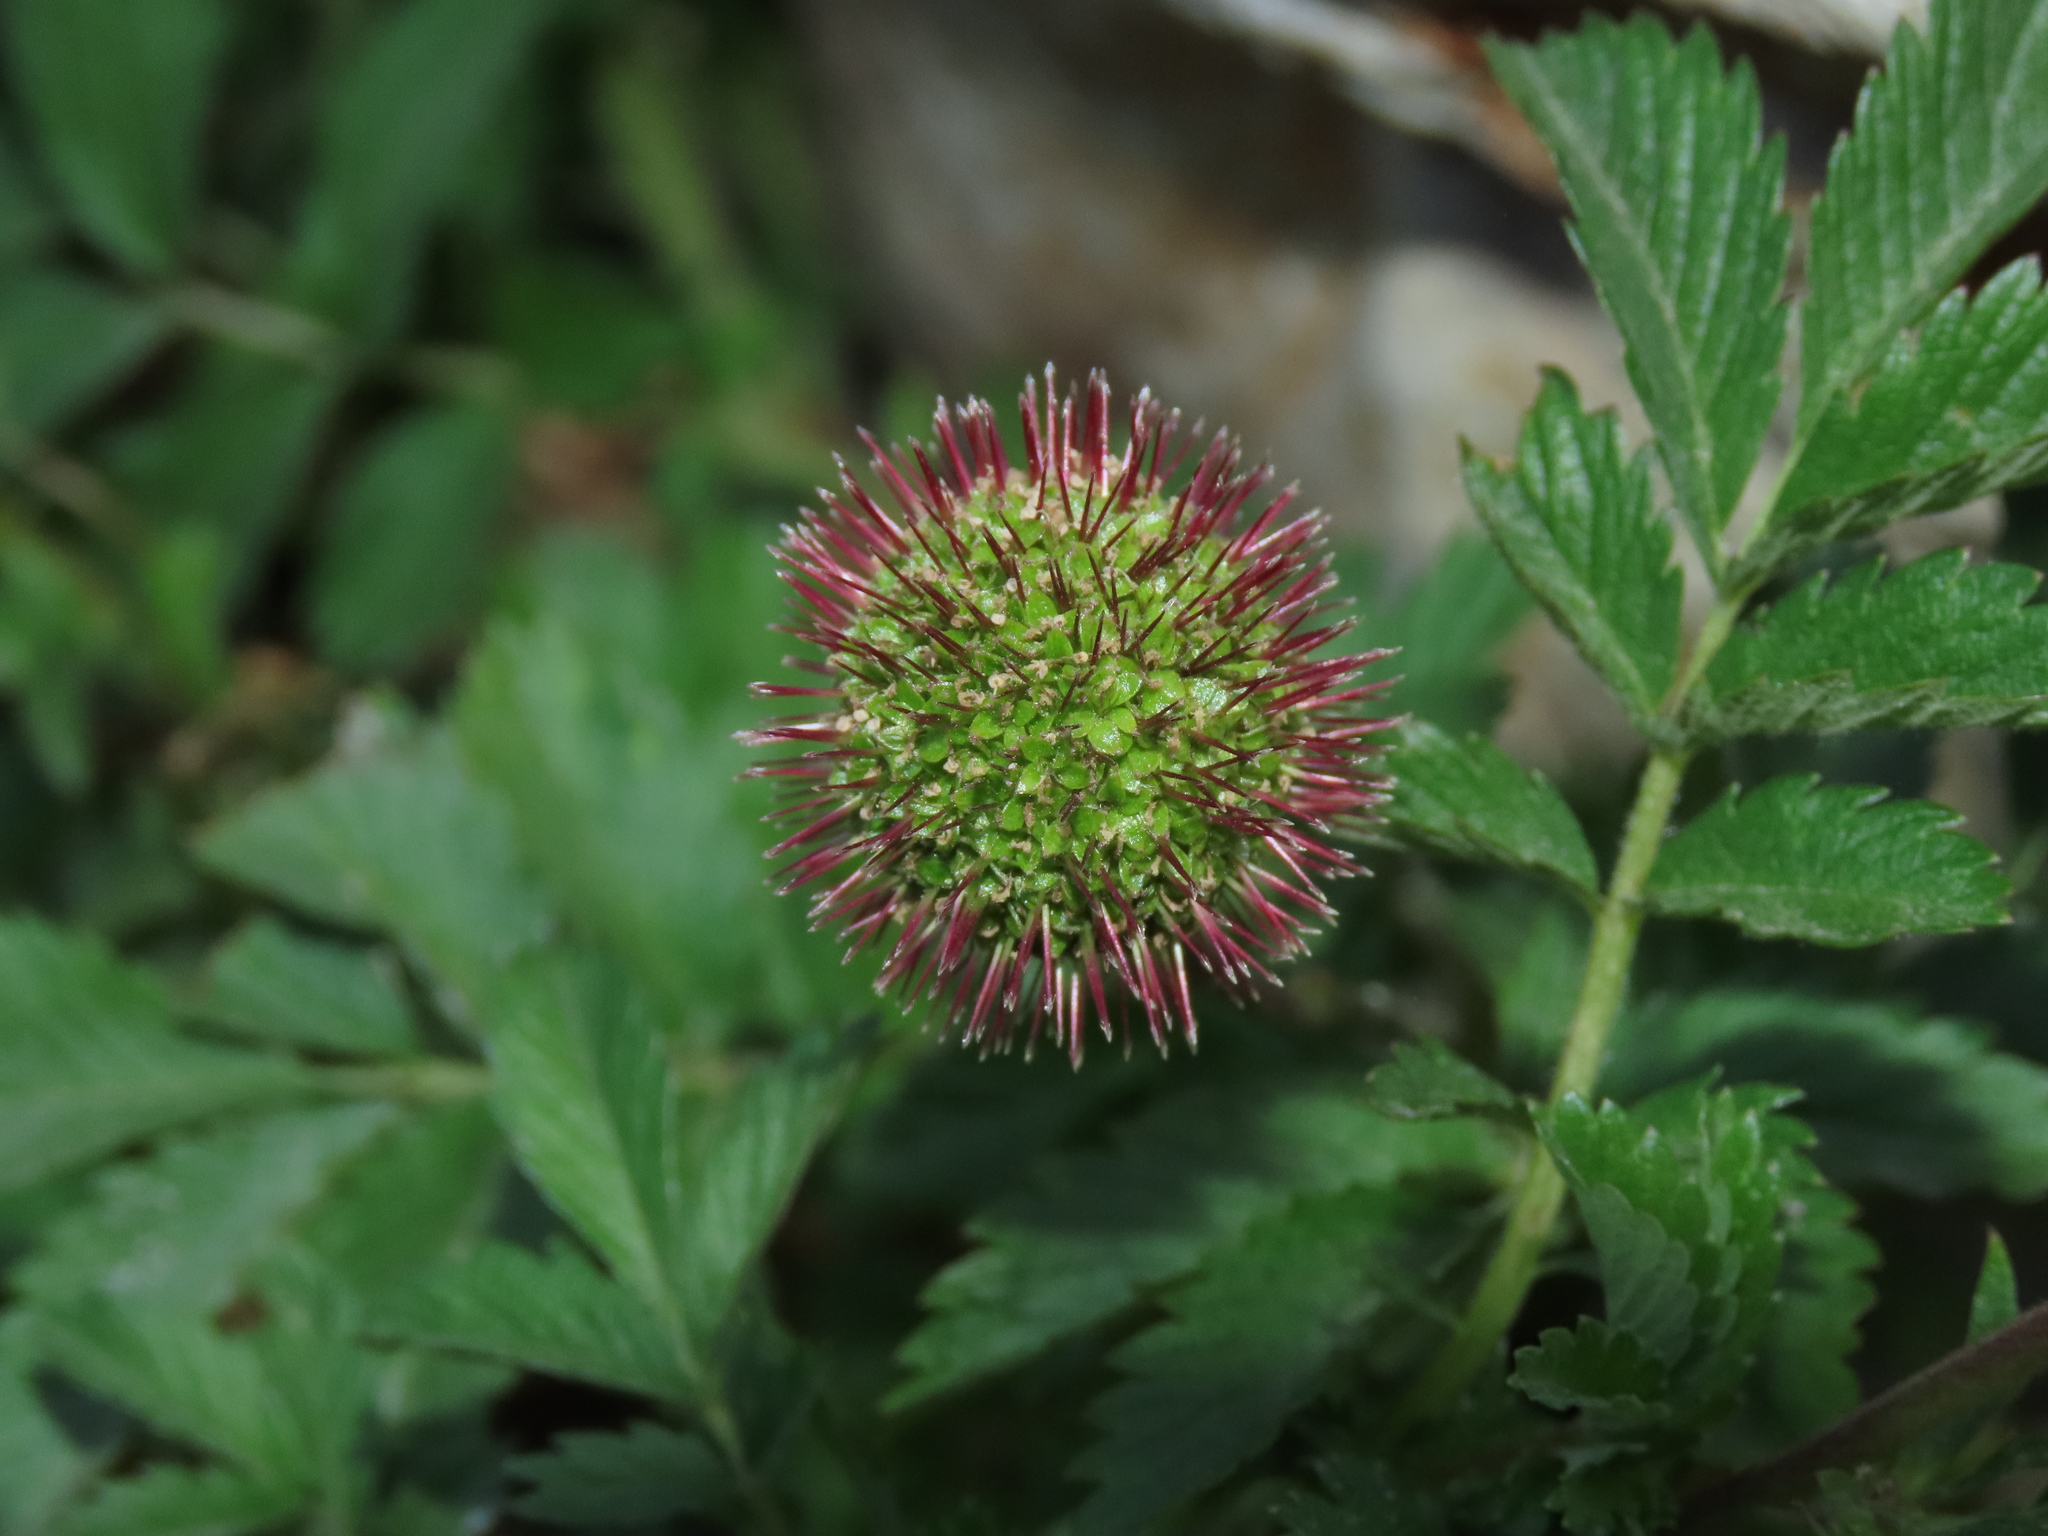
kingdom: Plantae
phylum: Tracheophyta
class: Magnoliopsida
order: Rosales
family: Rosaceae
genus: Acaena
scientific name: Acaena ovalifolia
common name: Two-spined acaena
